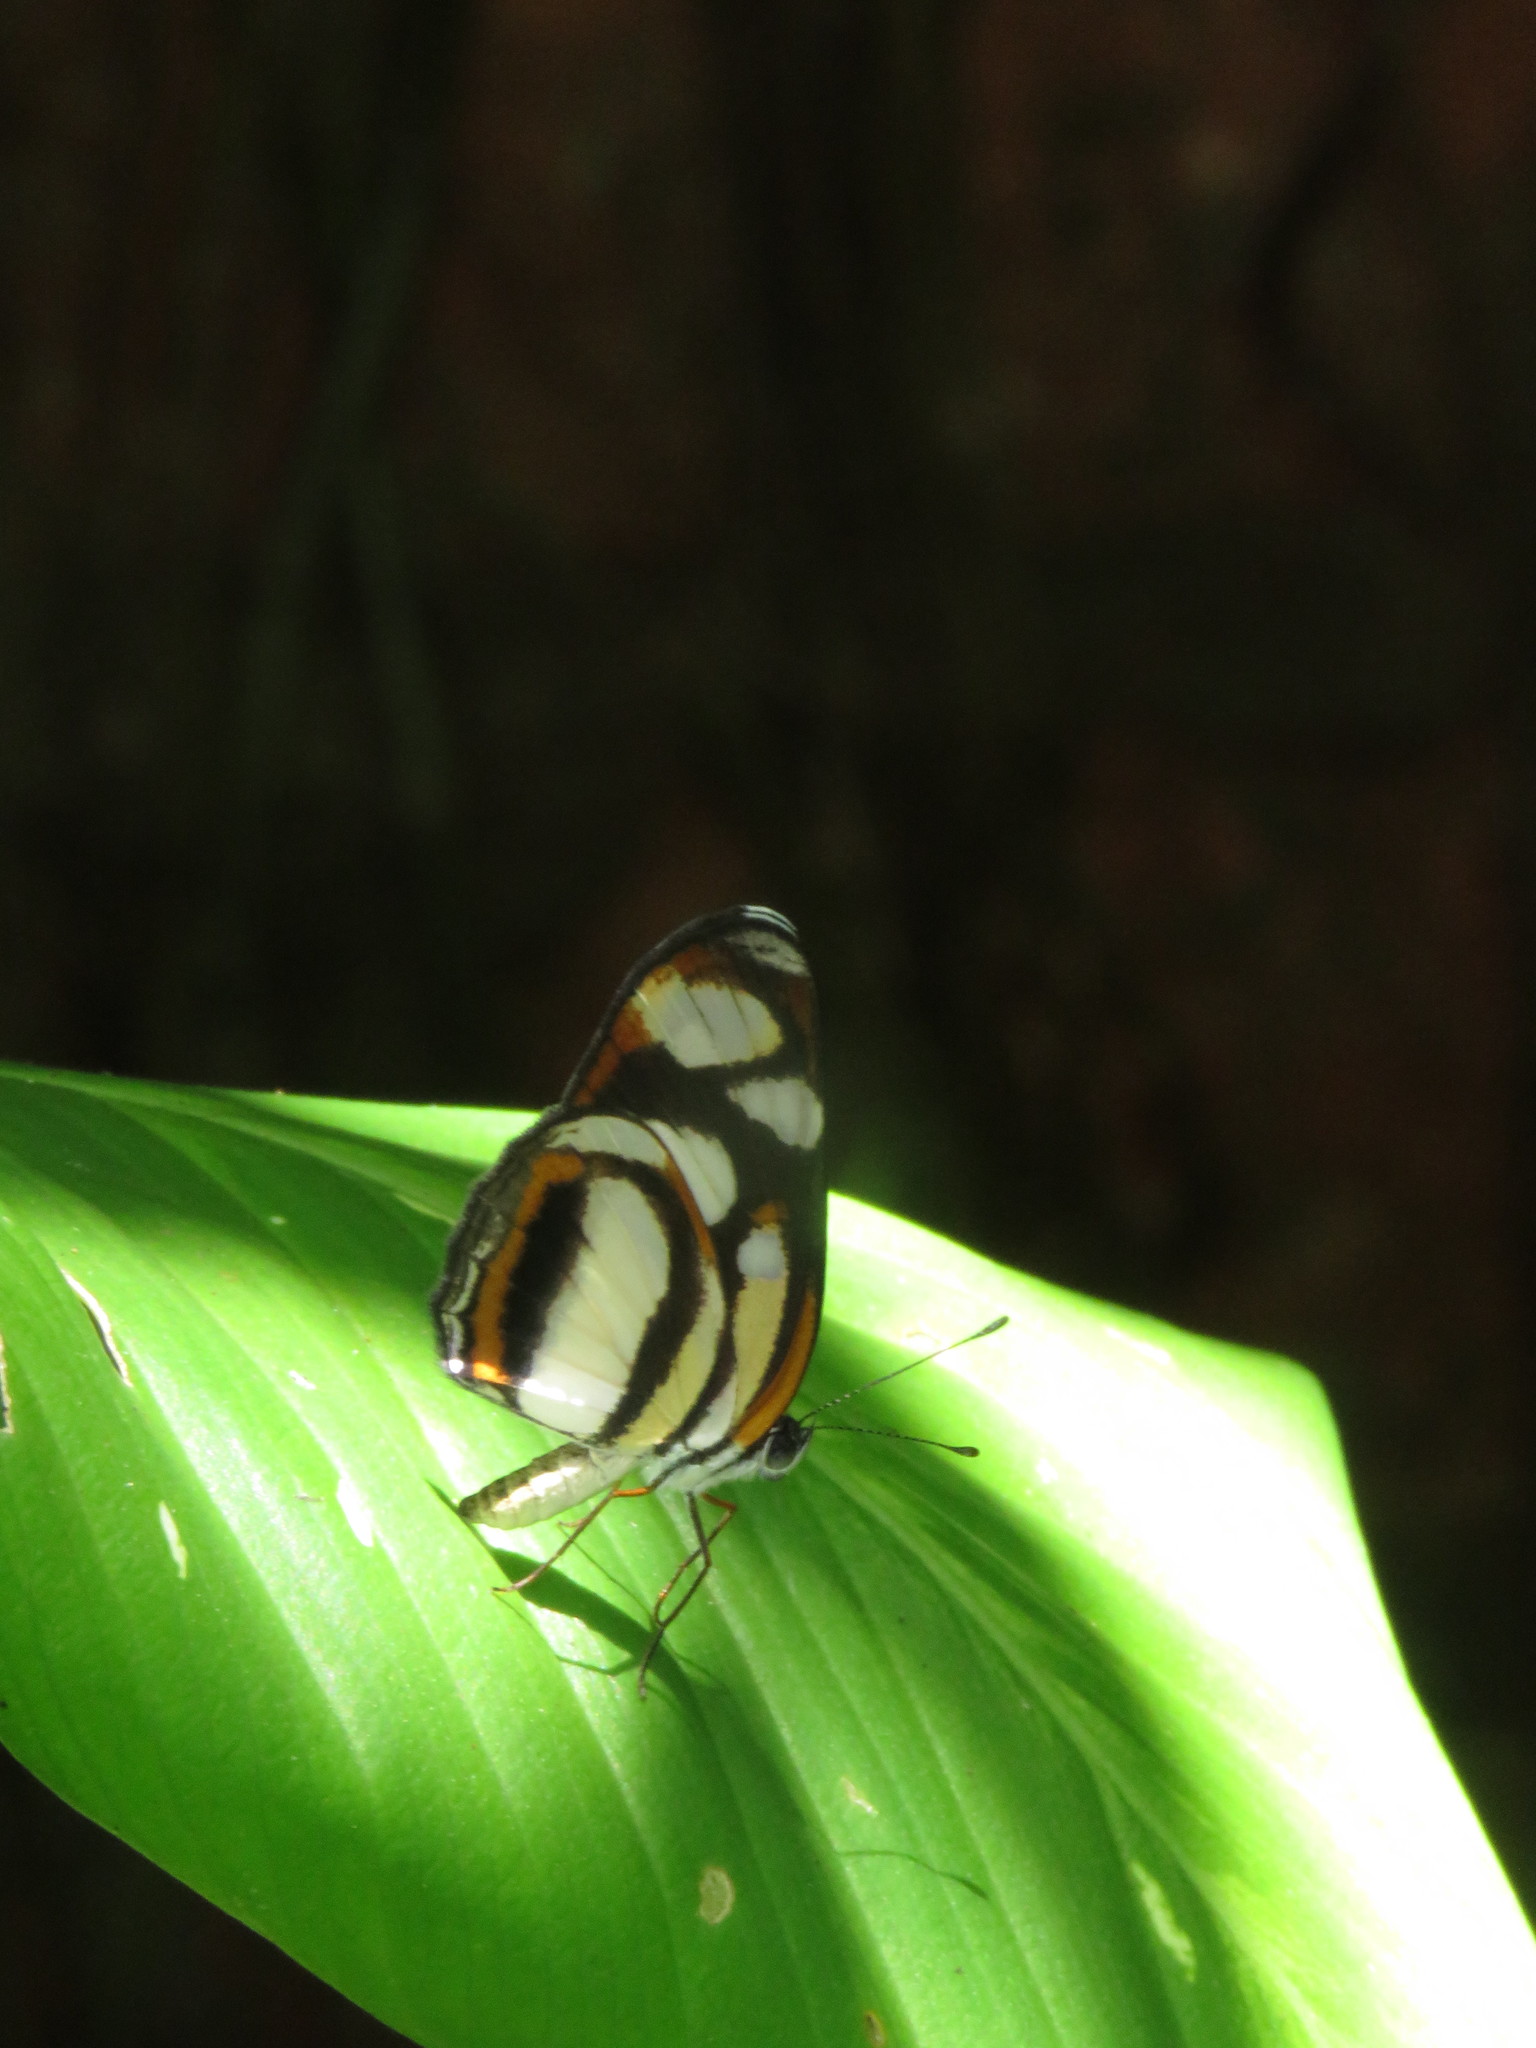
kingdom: Animalia
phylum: Arthropoda
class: Insecta
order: Lepidoptera
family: Nymphalidae
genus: Eresia
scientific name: Eresia clio
